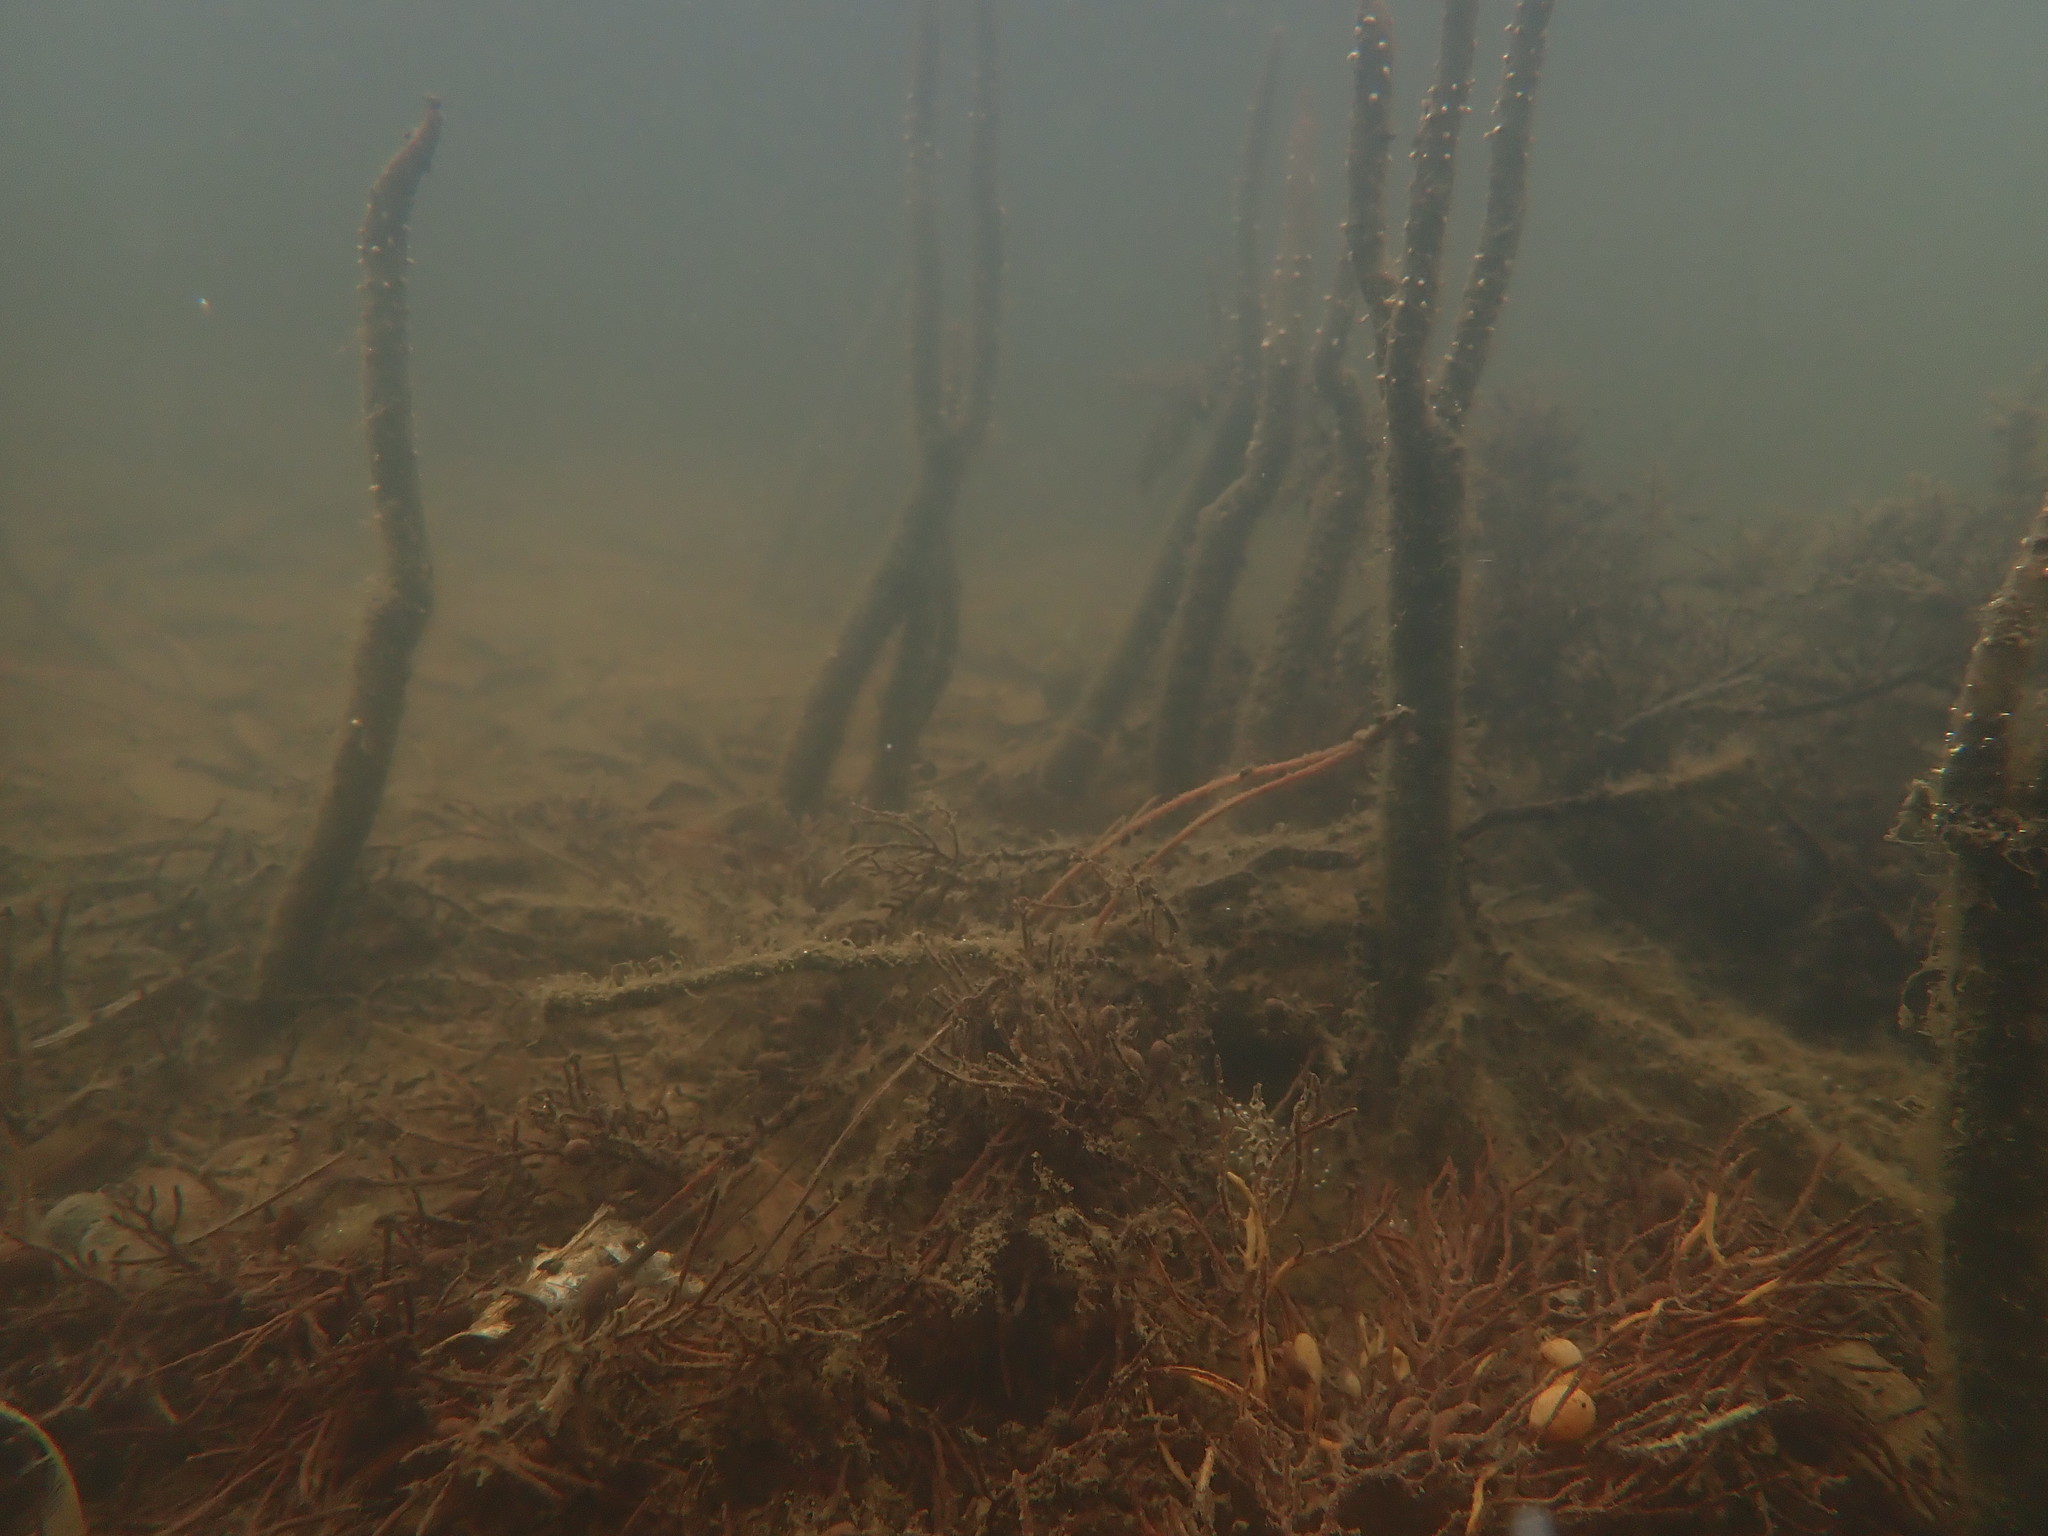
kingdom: Plantae
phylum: Tracheophyta
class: Magnoliopsida
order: Lamiales
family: Acanthaceae
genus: Avicennia
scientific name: Avicennia marina
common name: Gray mangrove
